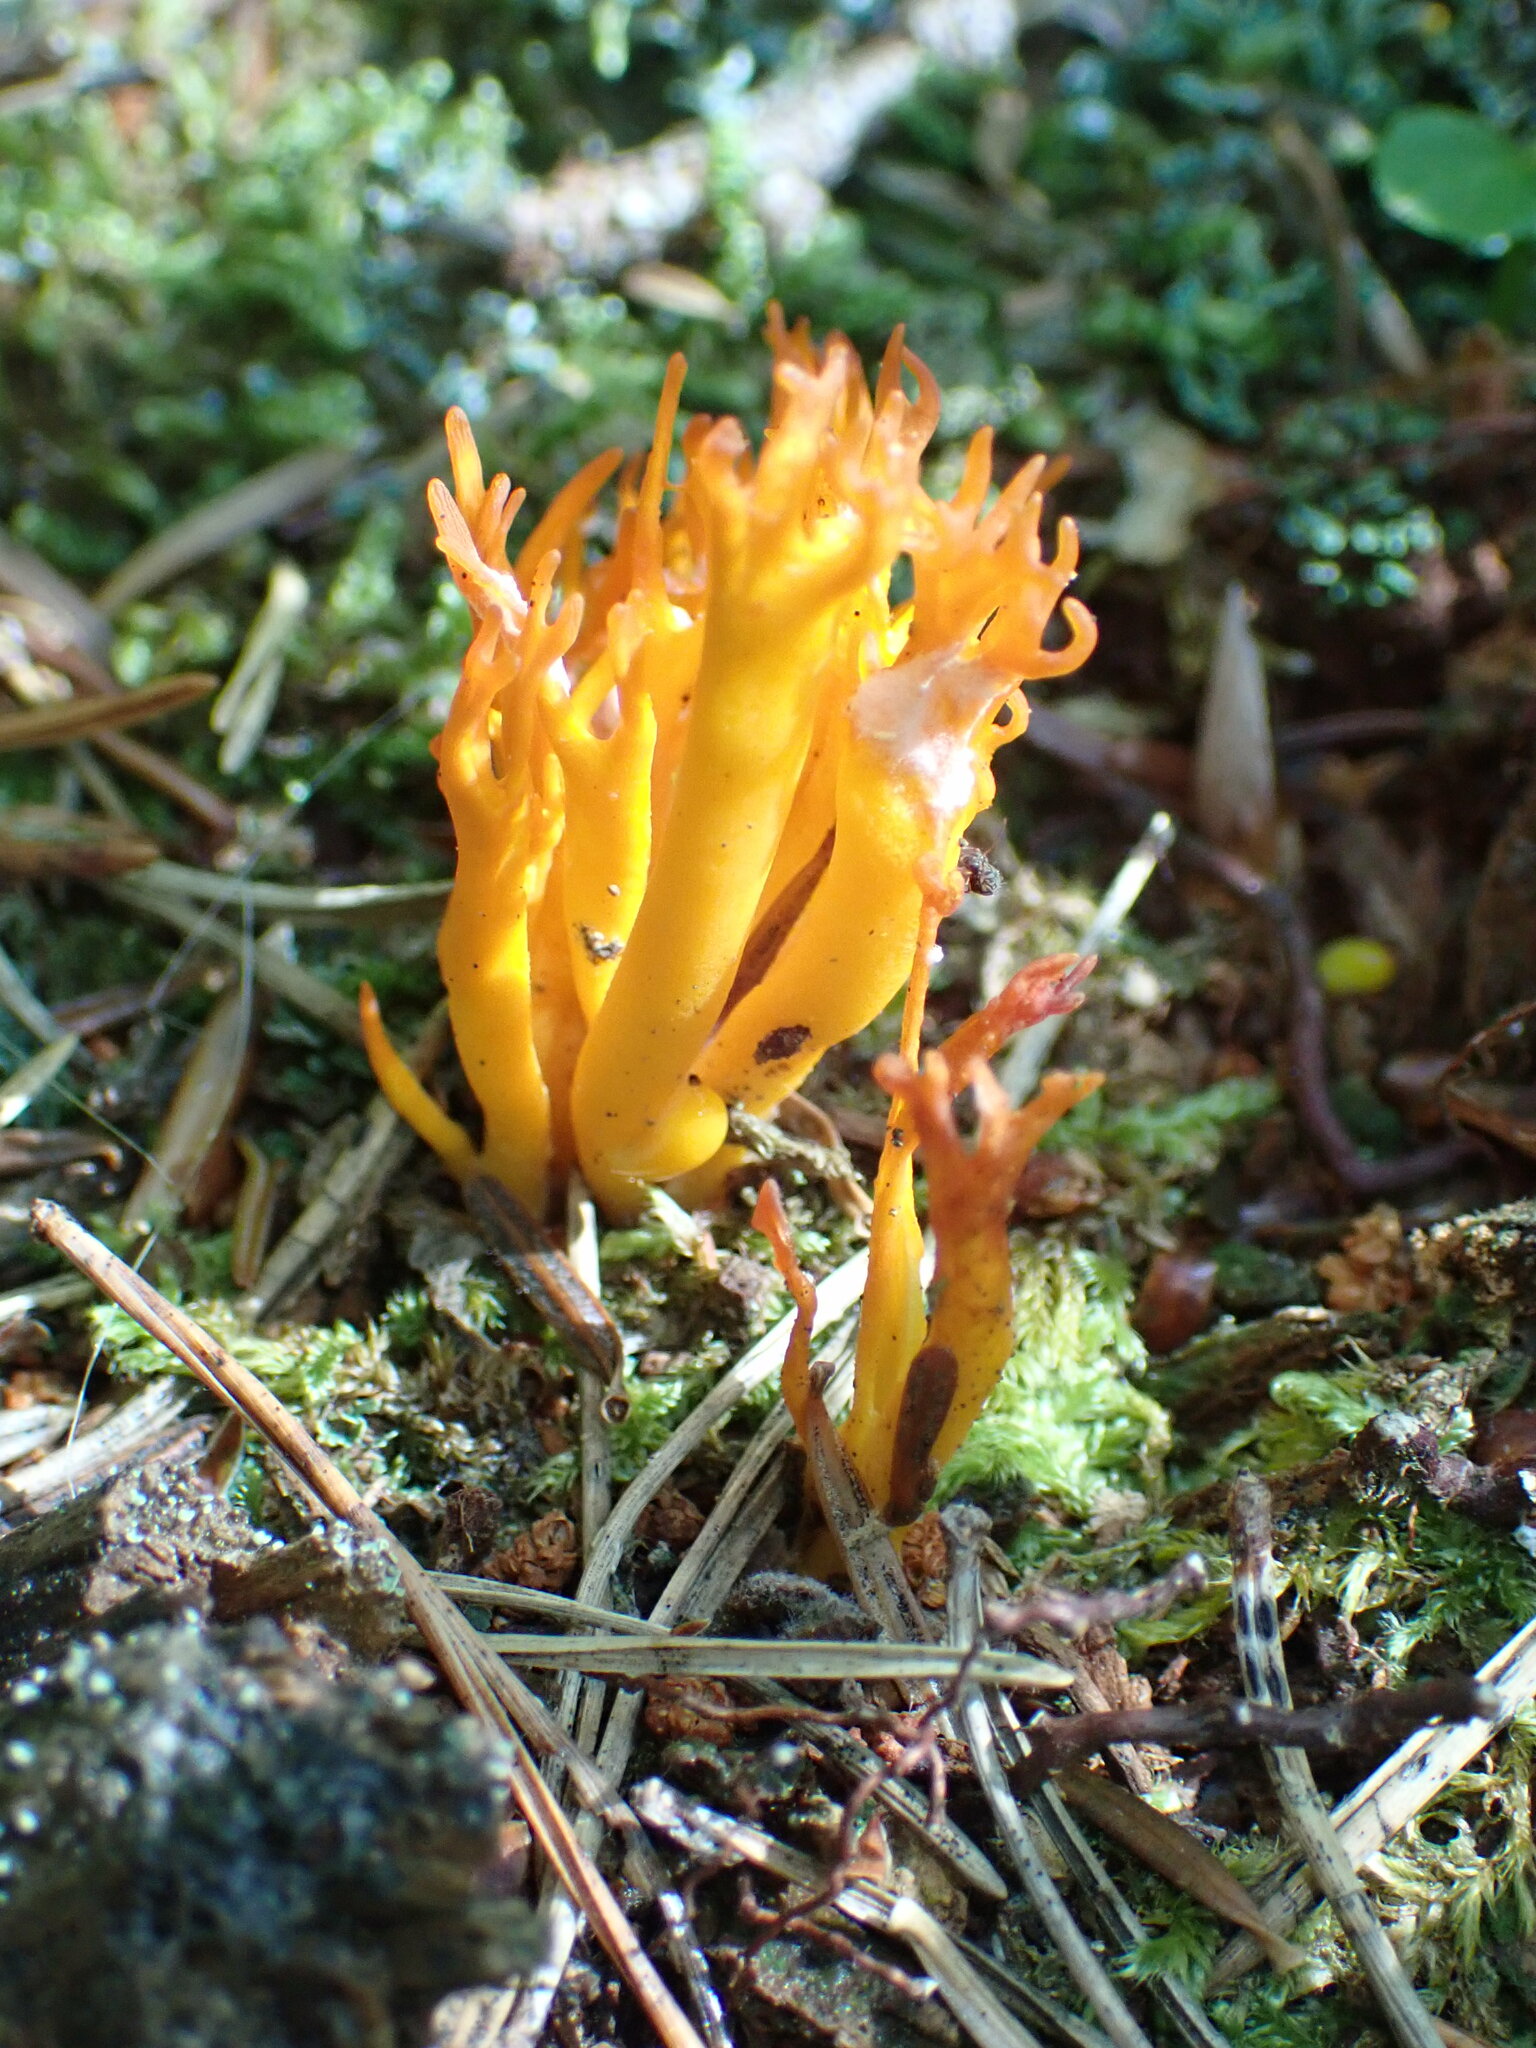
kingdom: Fungi
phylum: Basidiomycota
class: Dacrymycetes
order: Dacrymycetales
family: Dacrymycetaceae
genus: Calocera
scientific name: Calocera viscosa
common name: Yellow stagshorn
